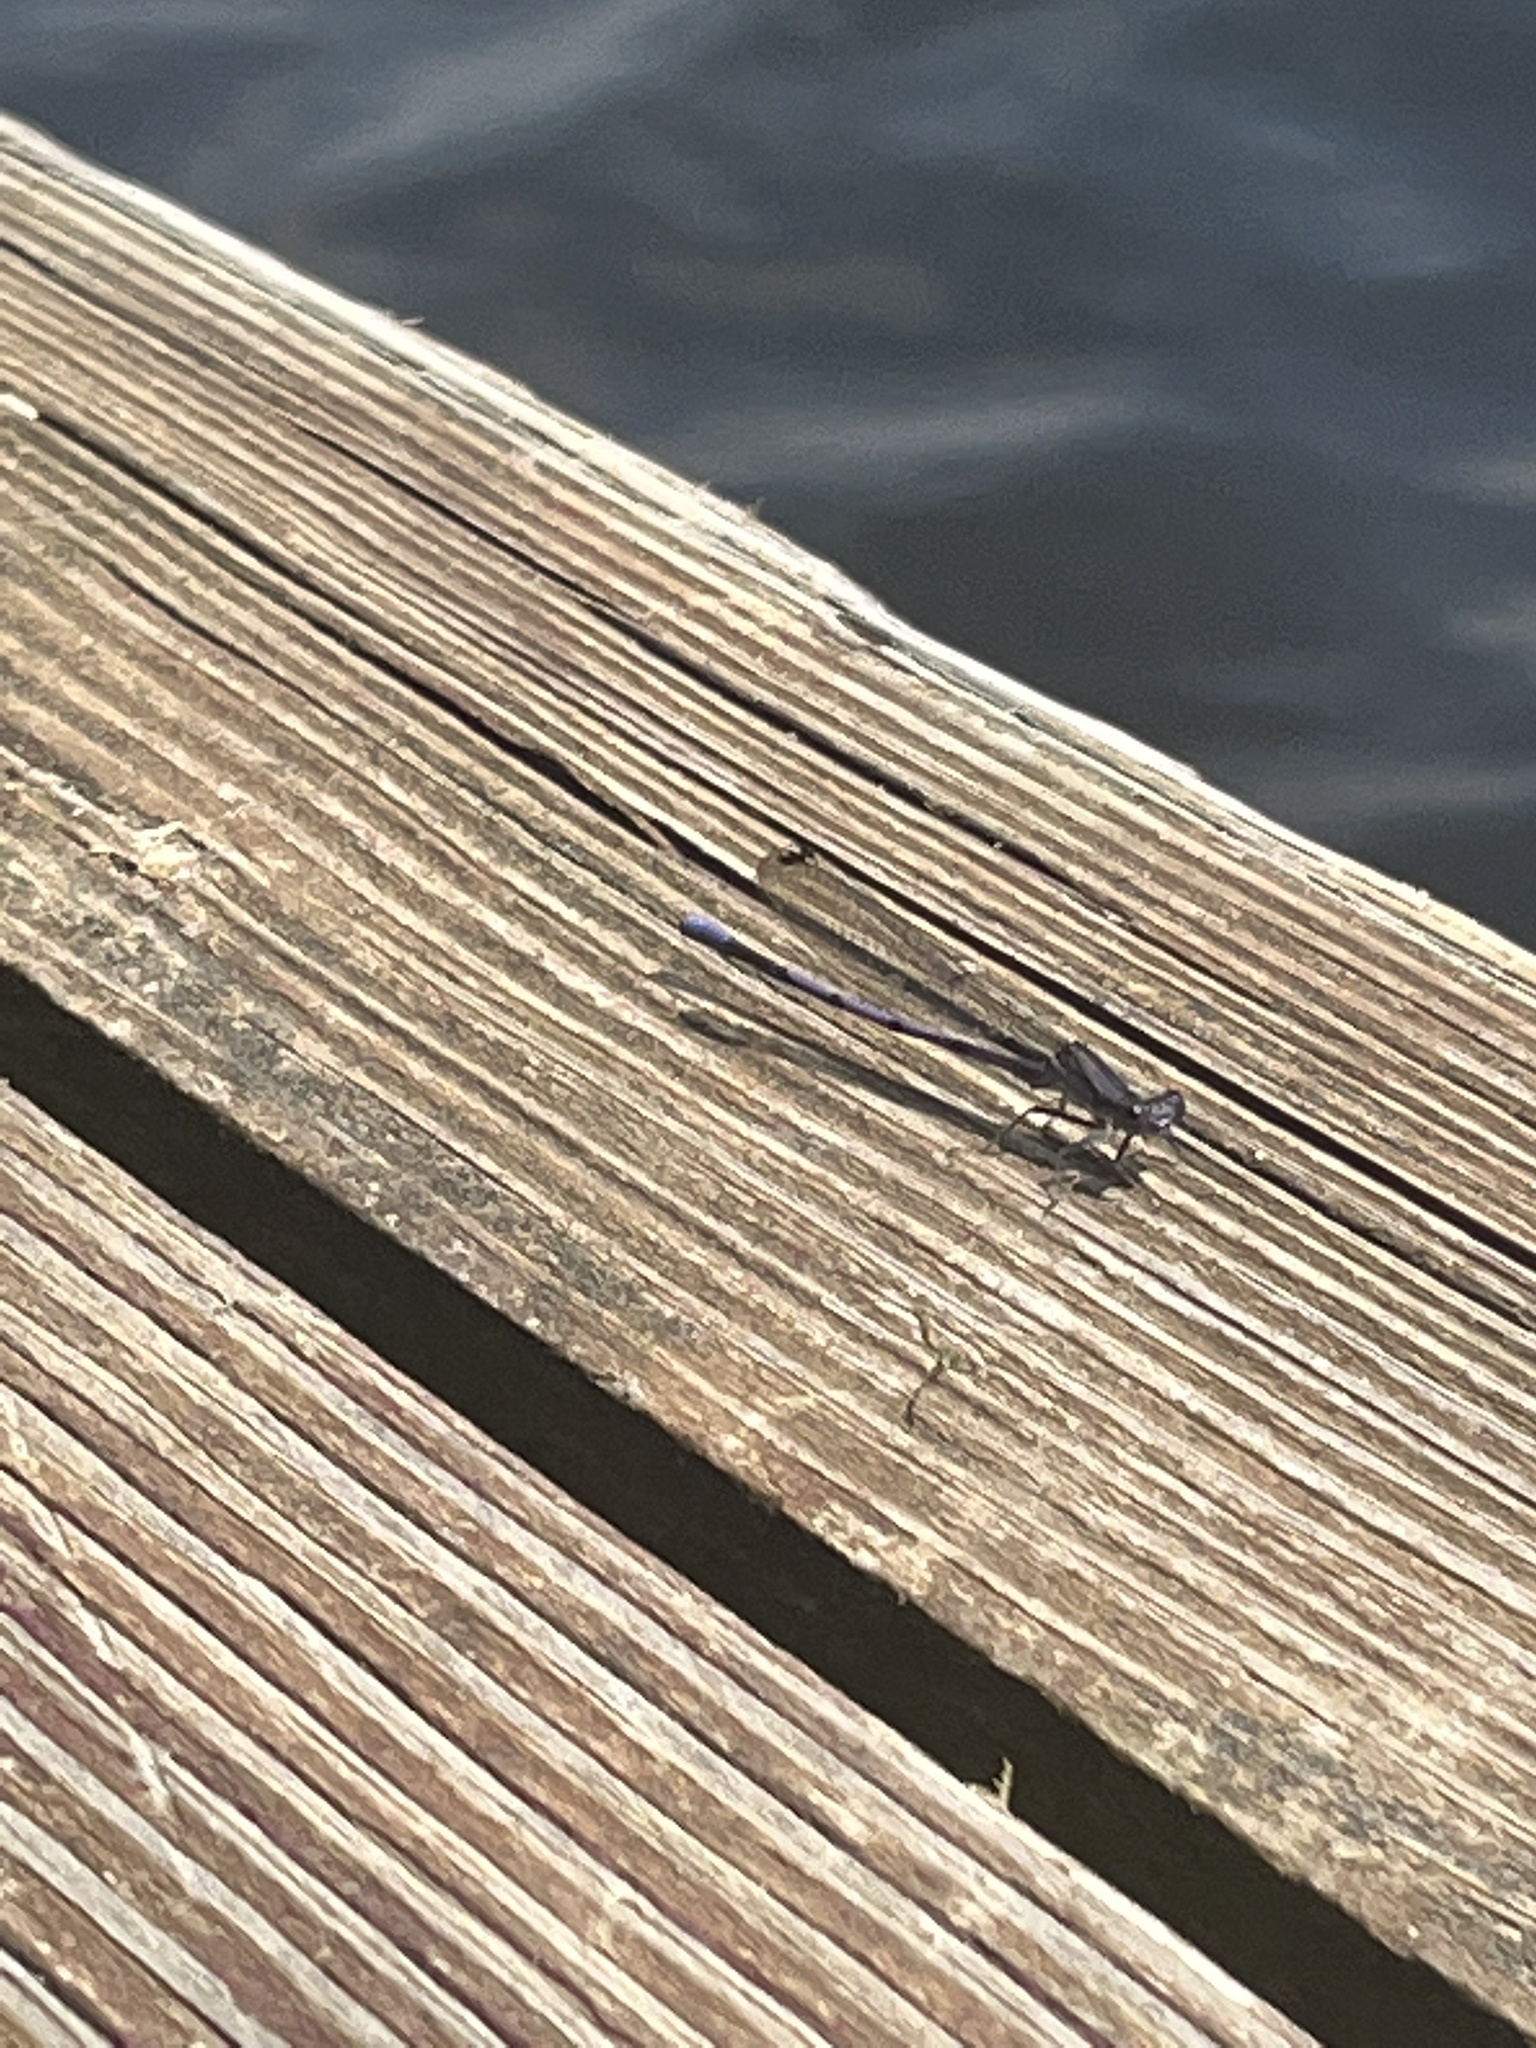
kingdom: Animalia
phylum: Arthropoda
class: Insecta
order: Odonata
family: Coenagrionidae
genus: Argia
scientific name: Argia fumipennis
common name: Variable dancer
